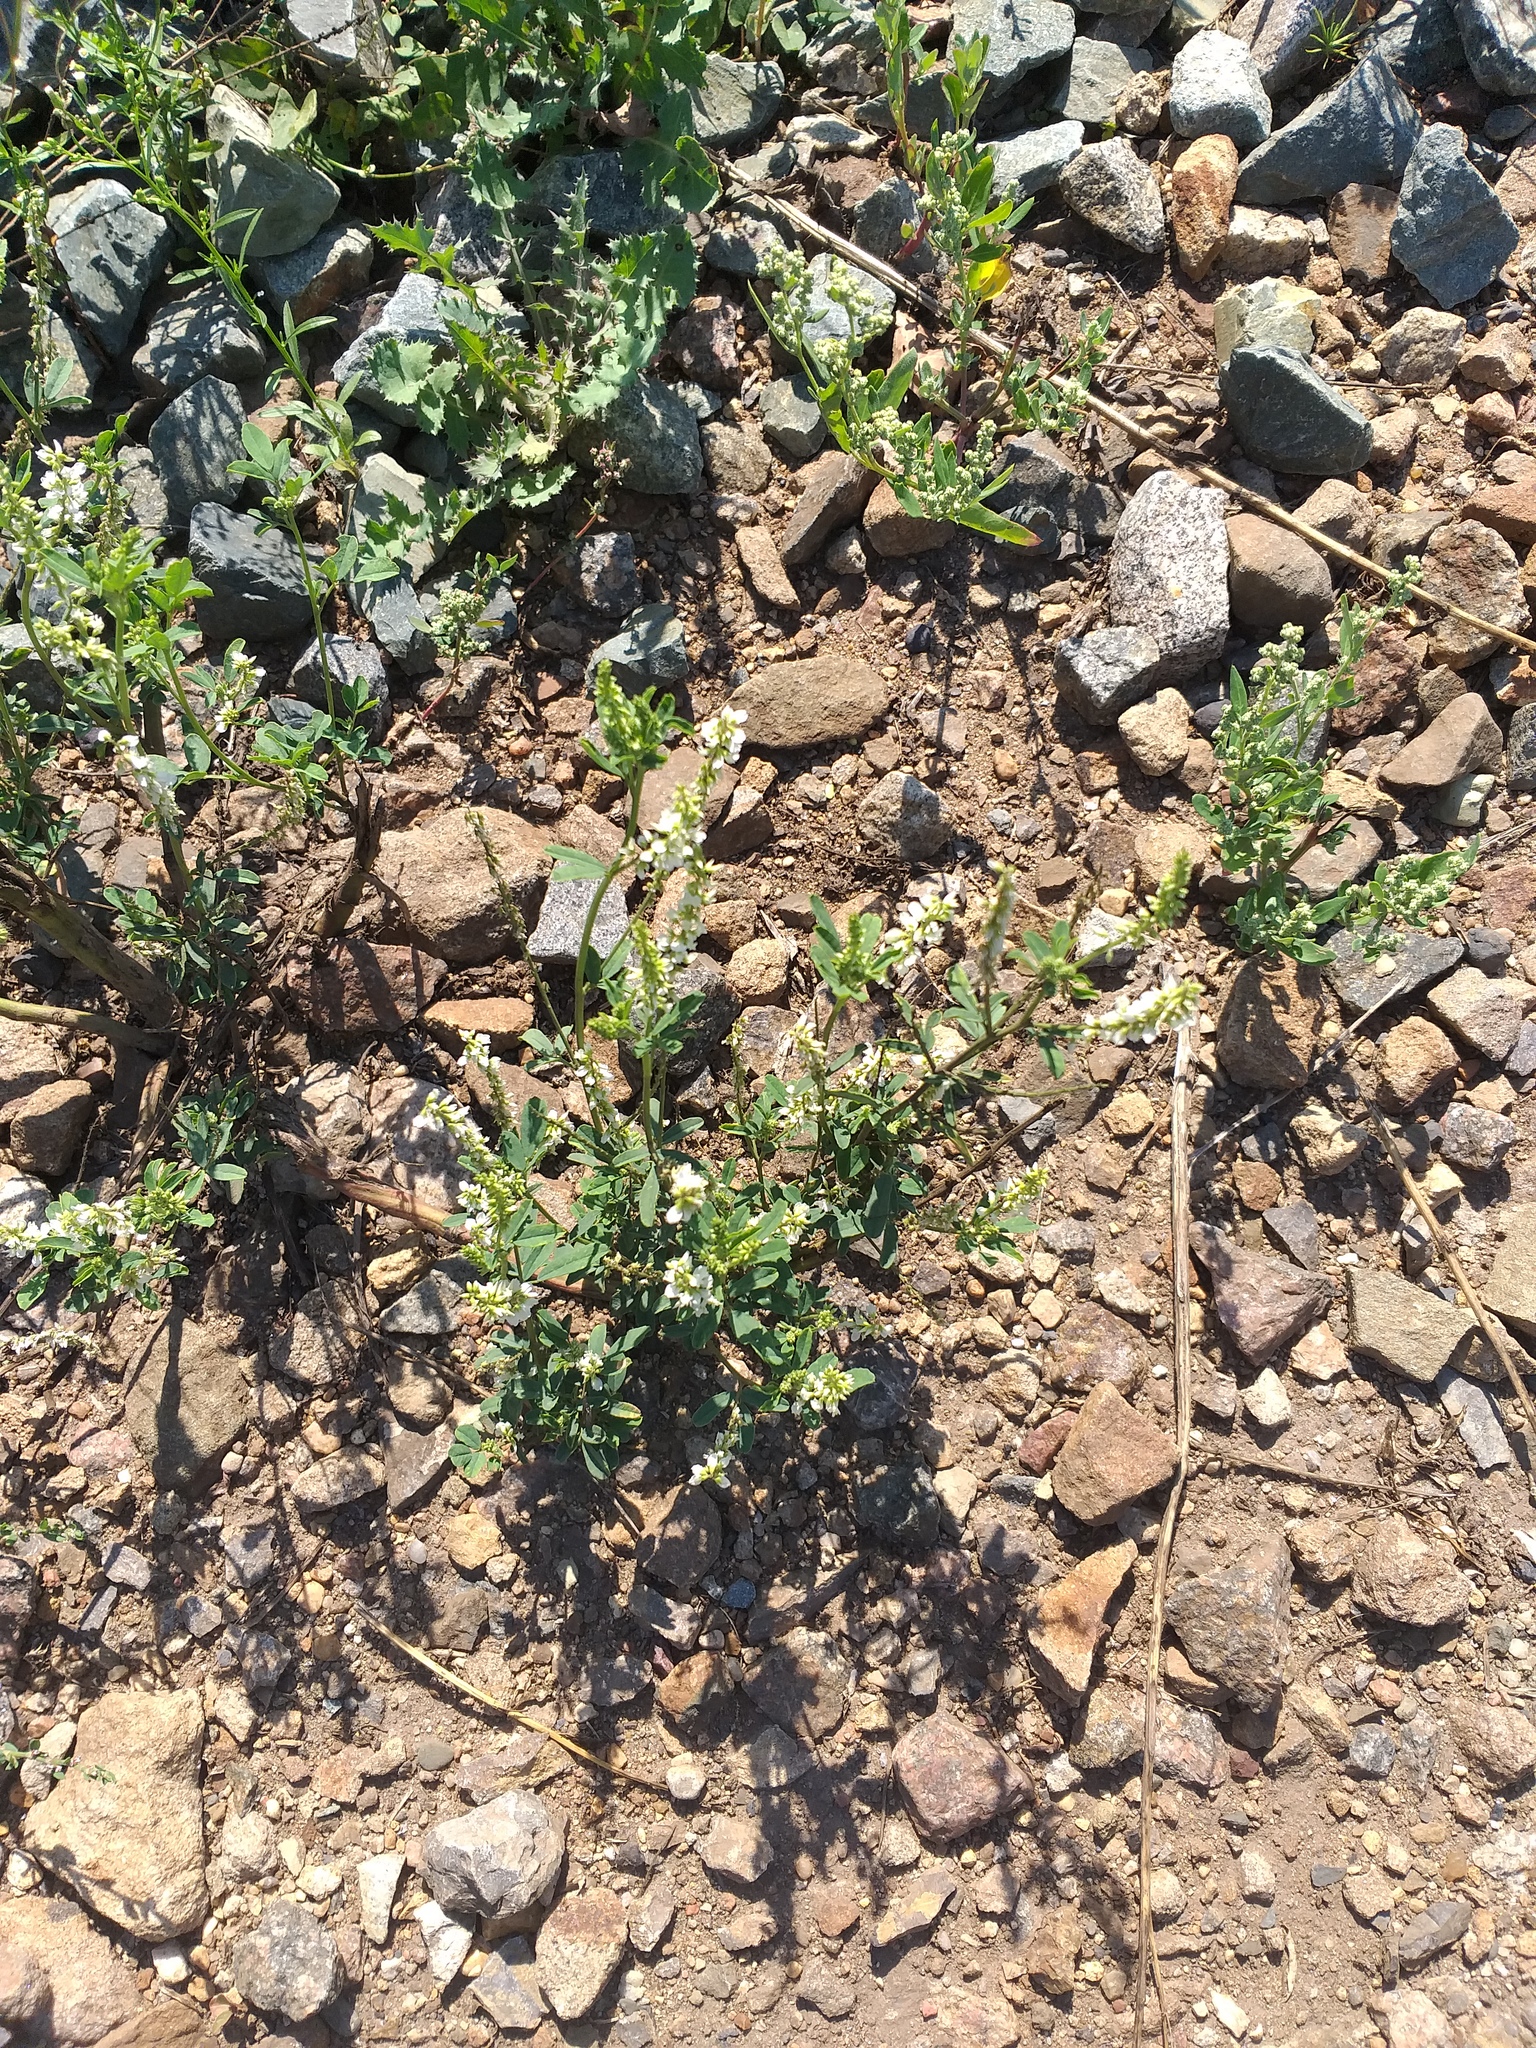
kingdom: Plantae
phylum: Tracheophyta
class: Magnoliopsida
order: Fabales
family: Fabaceae
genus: Melilotus
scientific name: Melilotus albus
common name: White melilot
